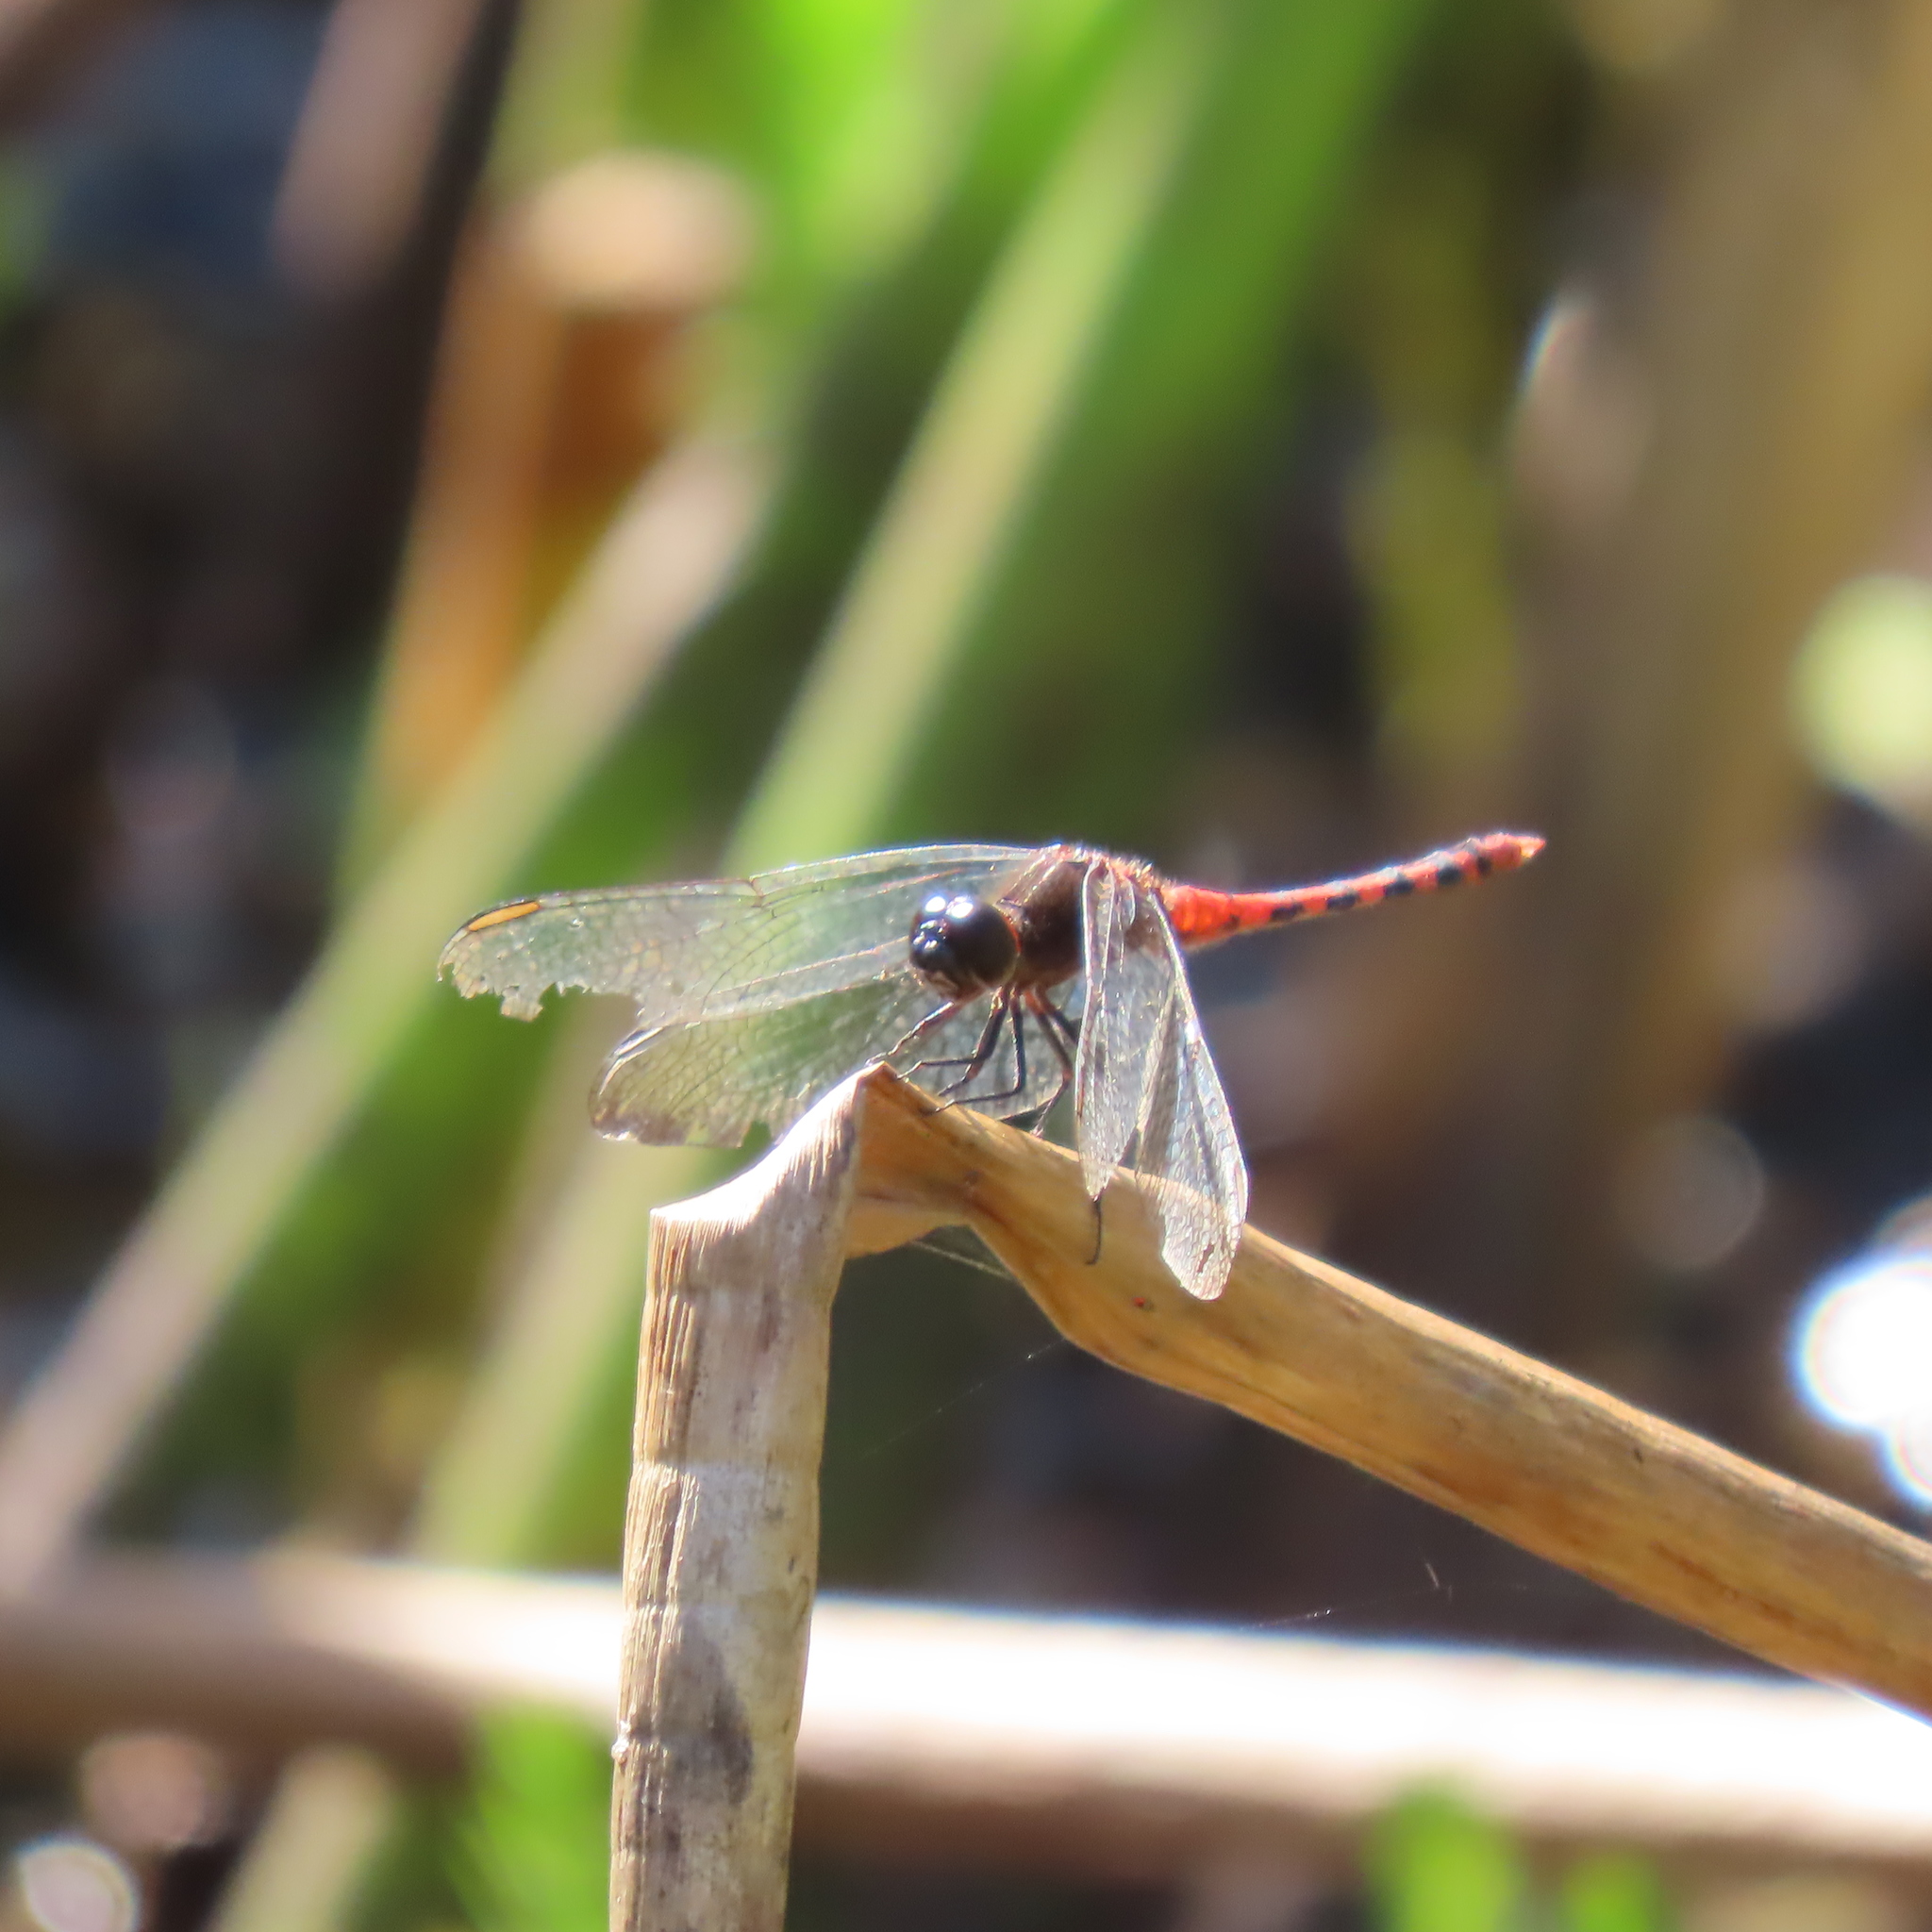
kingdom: Animalia
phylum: Arthropoda
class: Insecta
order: Odonata
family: Libellulidae
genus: Diplacodes
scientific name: Diplacodes melanopsis
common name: Black-faced percher
